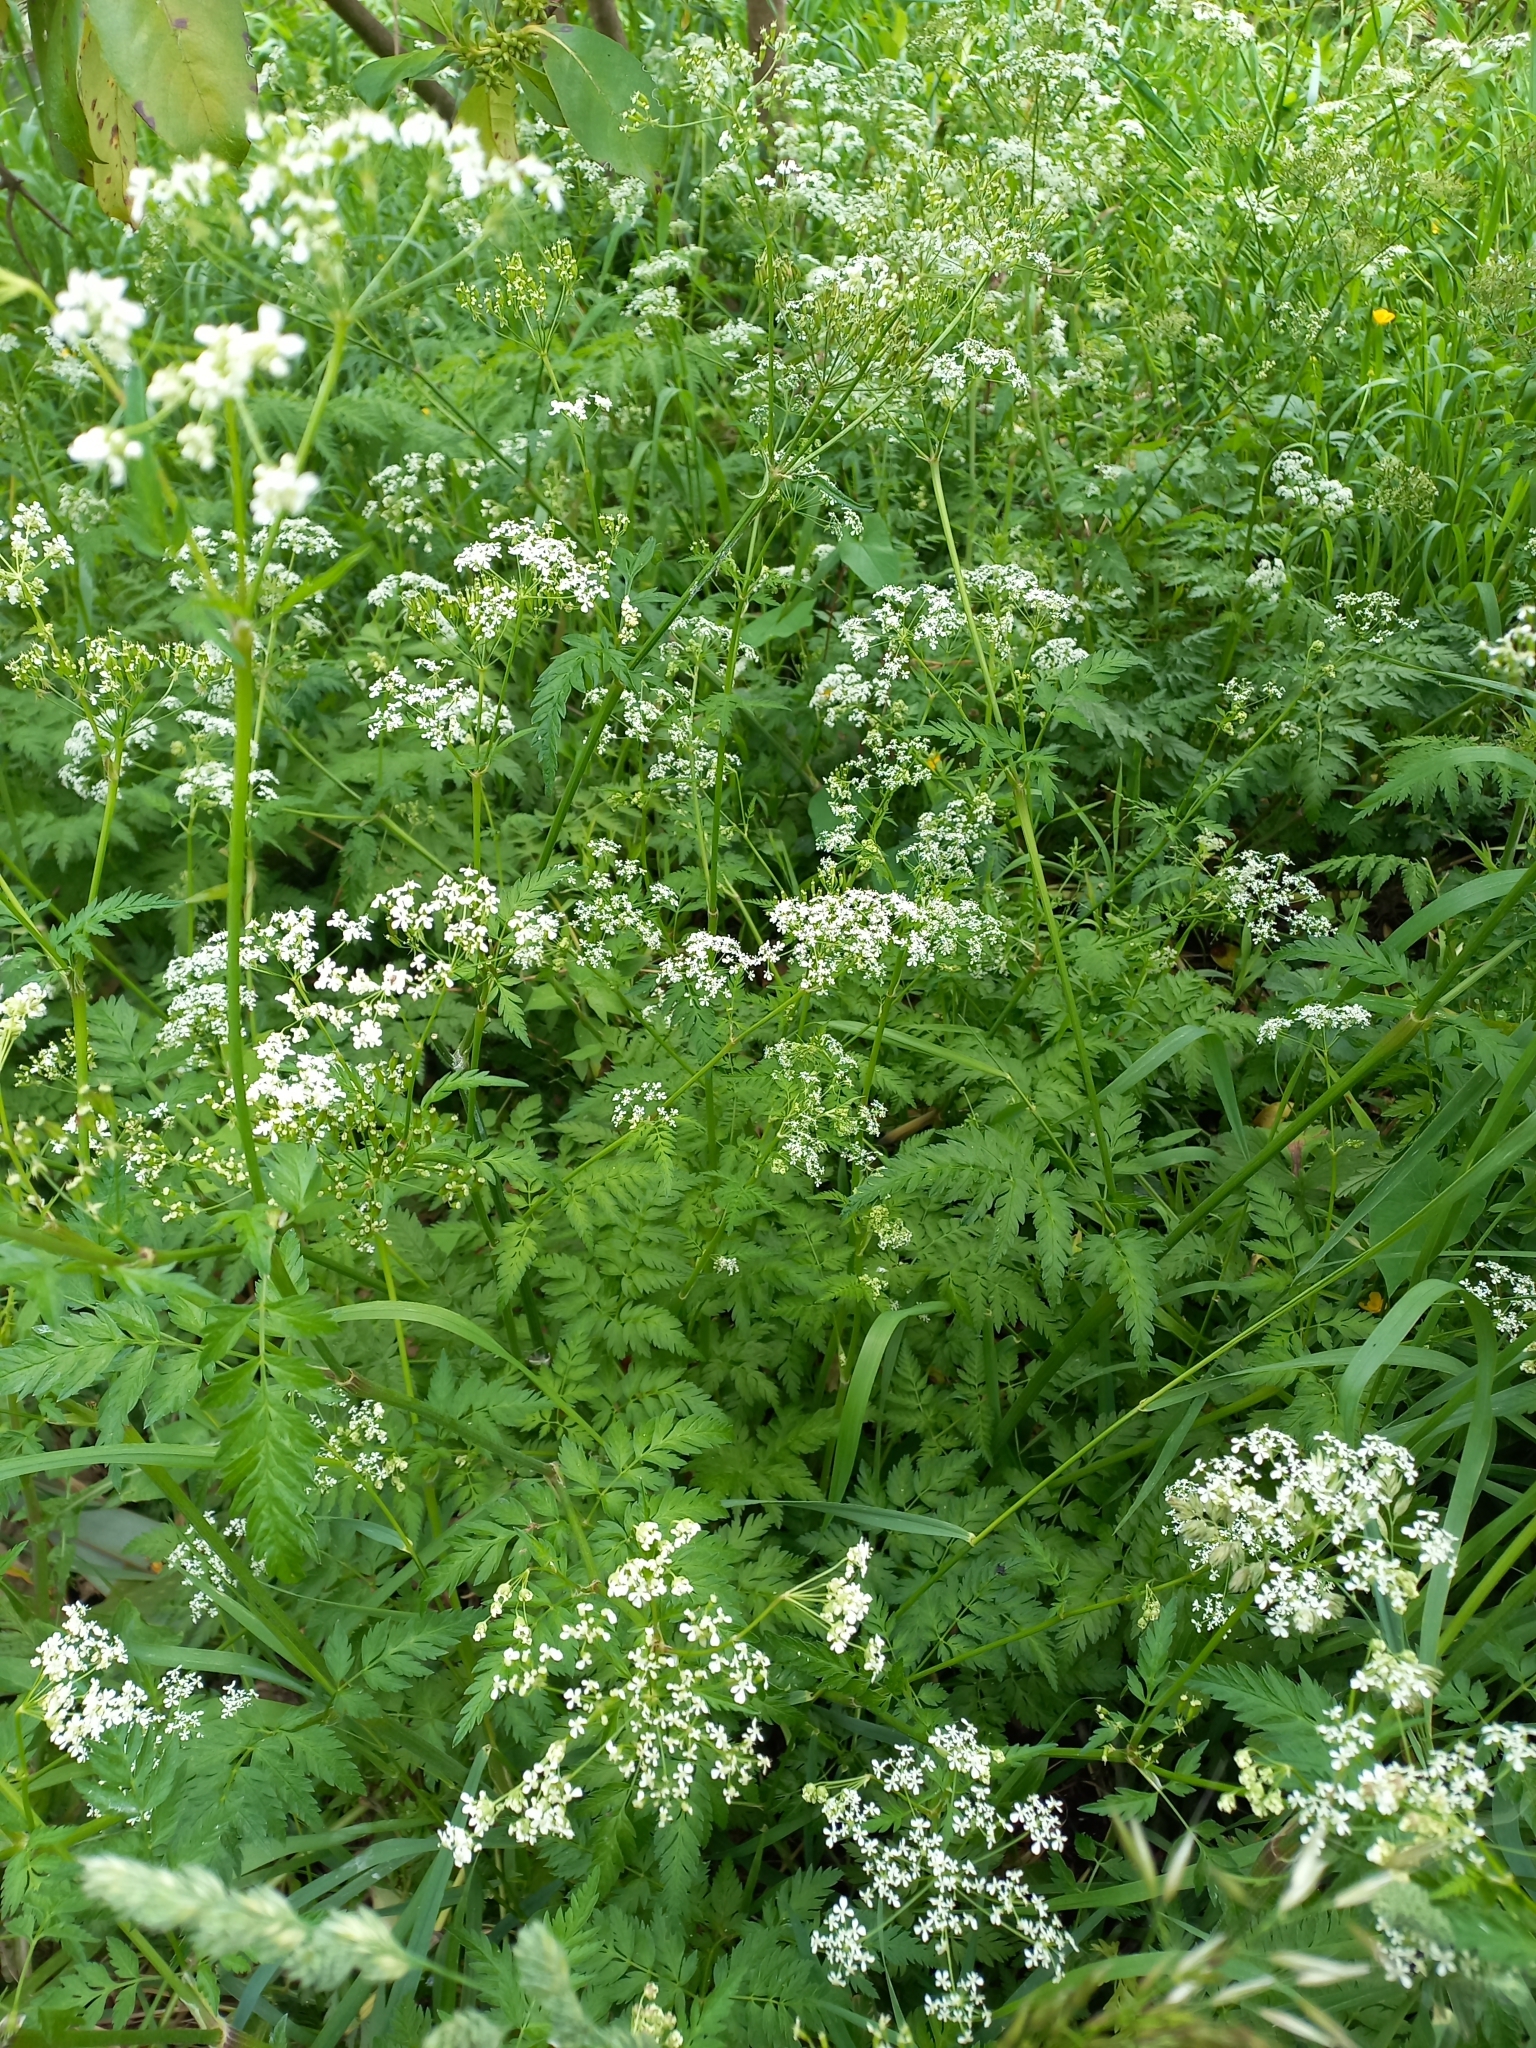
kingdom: Plantae
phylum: Tracheophyta
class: Magnoliopsida
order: Apiales
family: Apiaceae
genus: Anthriscus
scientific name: Anthriscus caucalis
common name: Bur chervil
